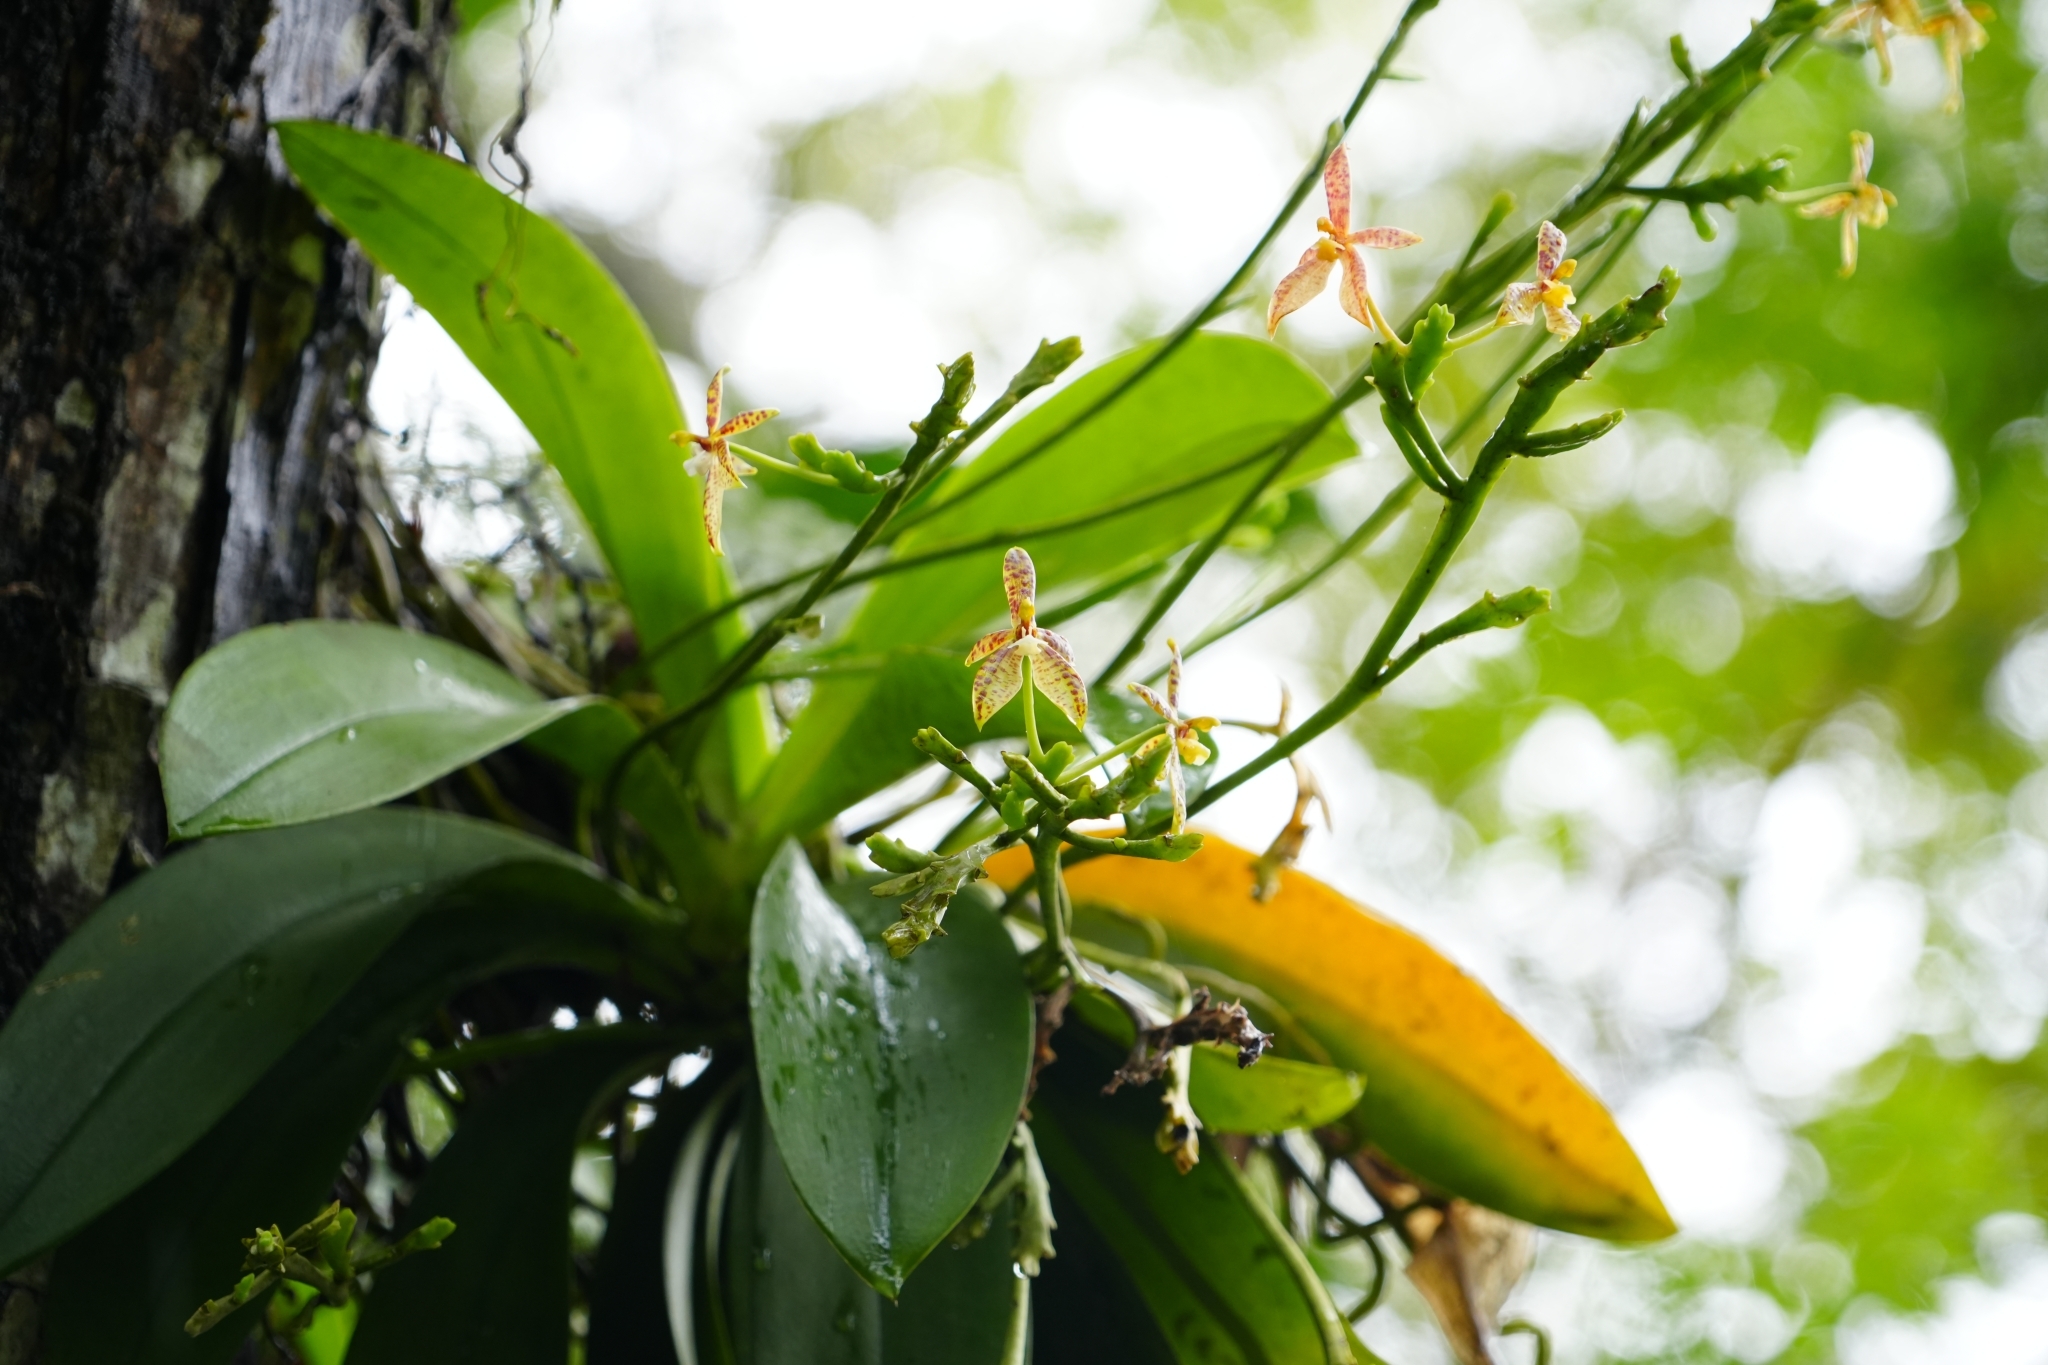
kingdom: Plantae
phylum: Tracheophyta
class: Liliopsida
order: Asparagales
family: Orchidaceae
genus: Phalaenopsis
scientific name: Phalaenopsis cornu-cervi
